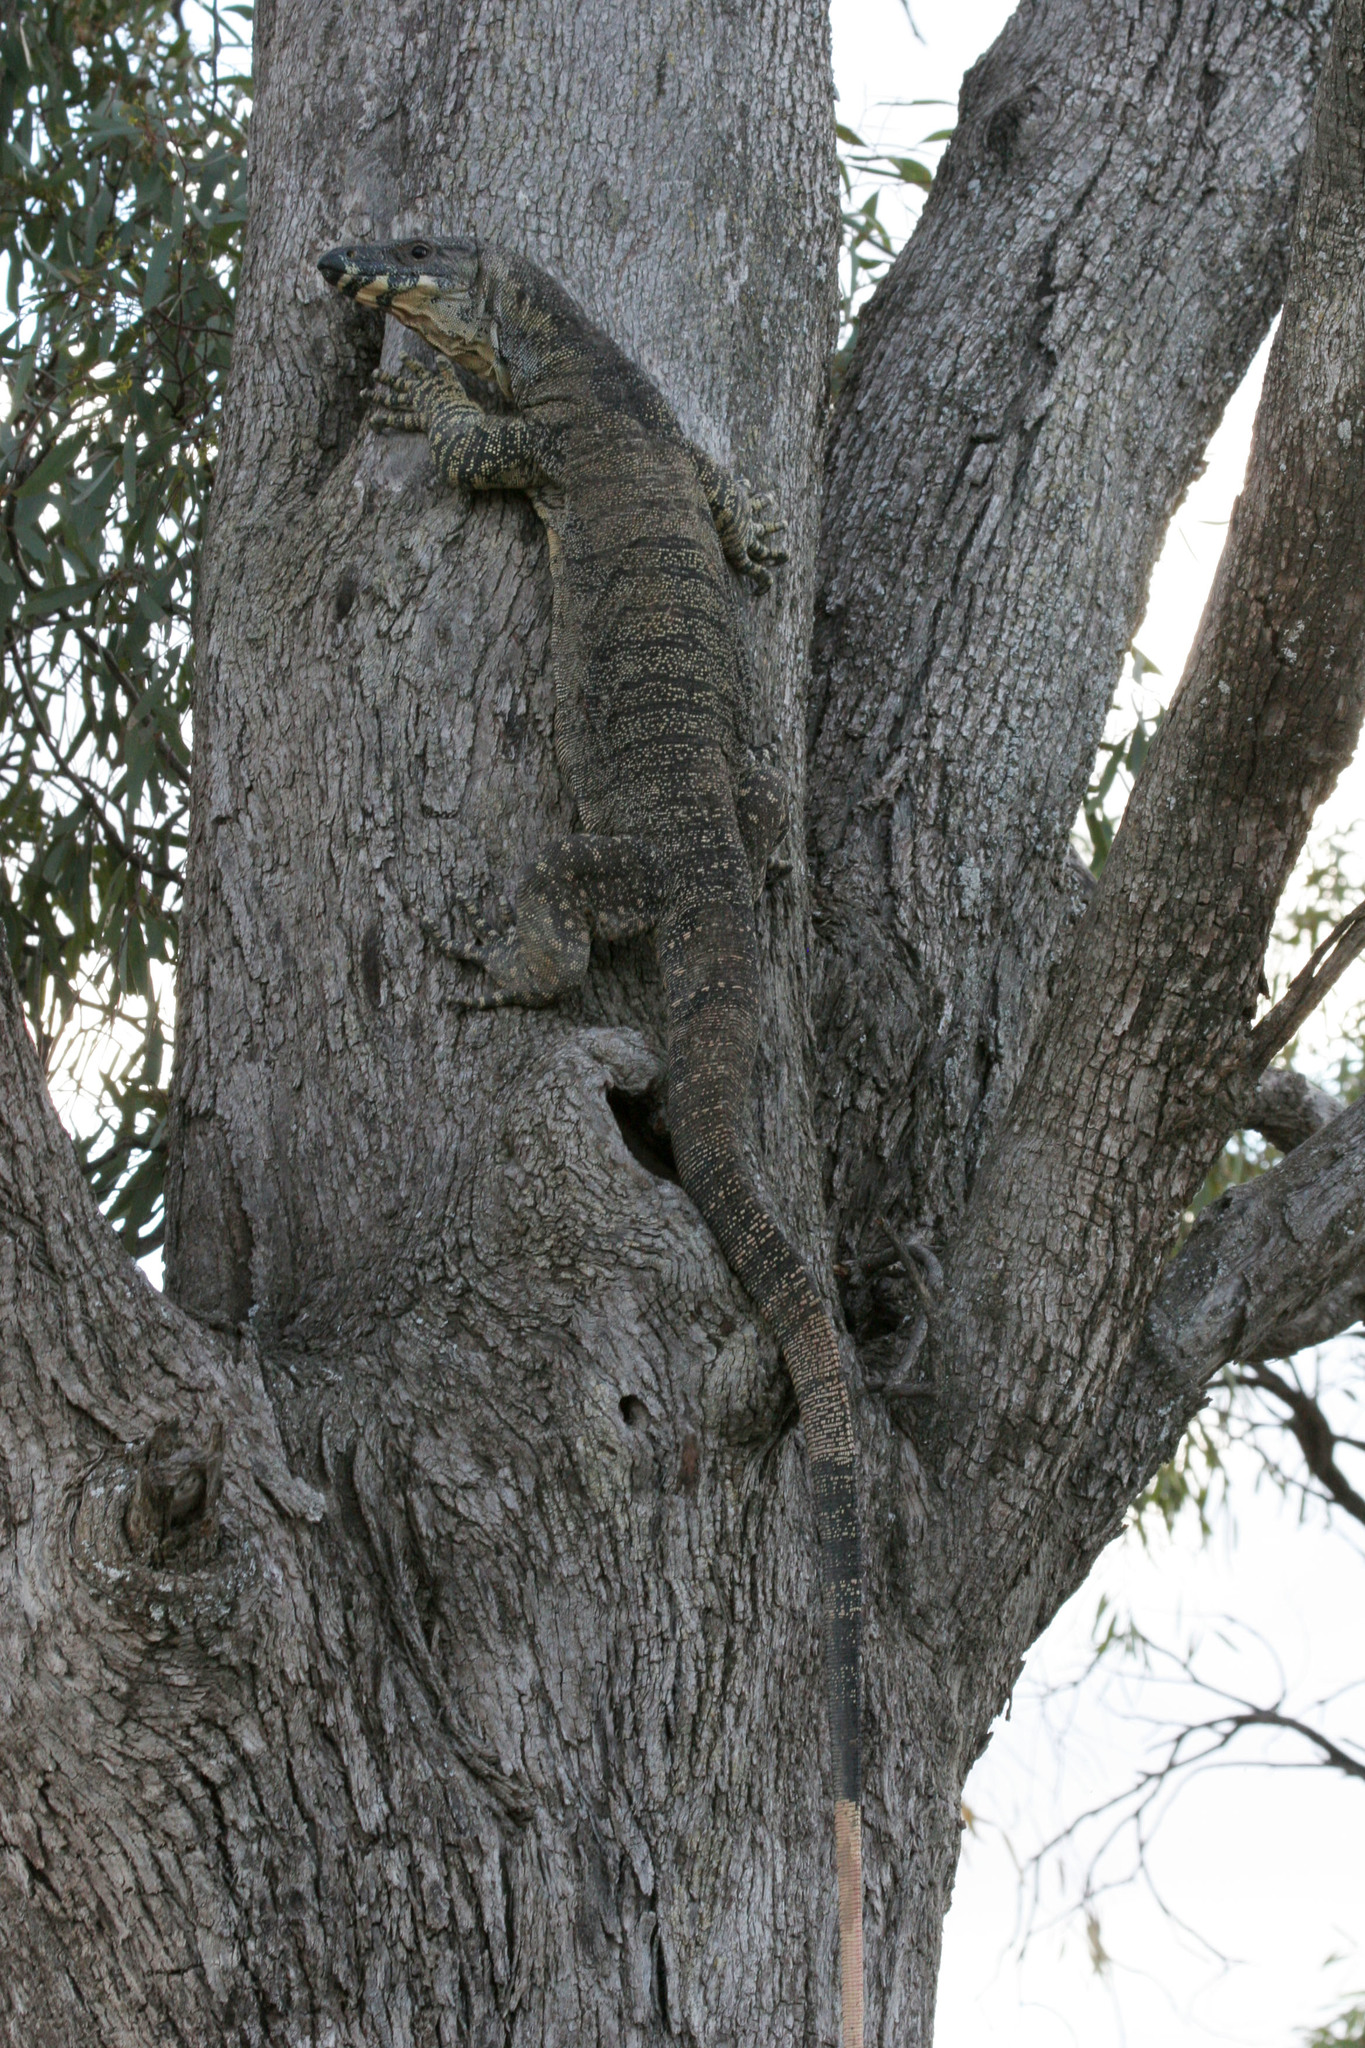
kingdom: Animalia
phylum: Chordata
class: Squamata
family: Varanidae
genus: Varanus
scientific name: Varanus varius
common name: Lace monitor
